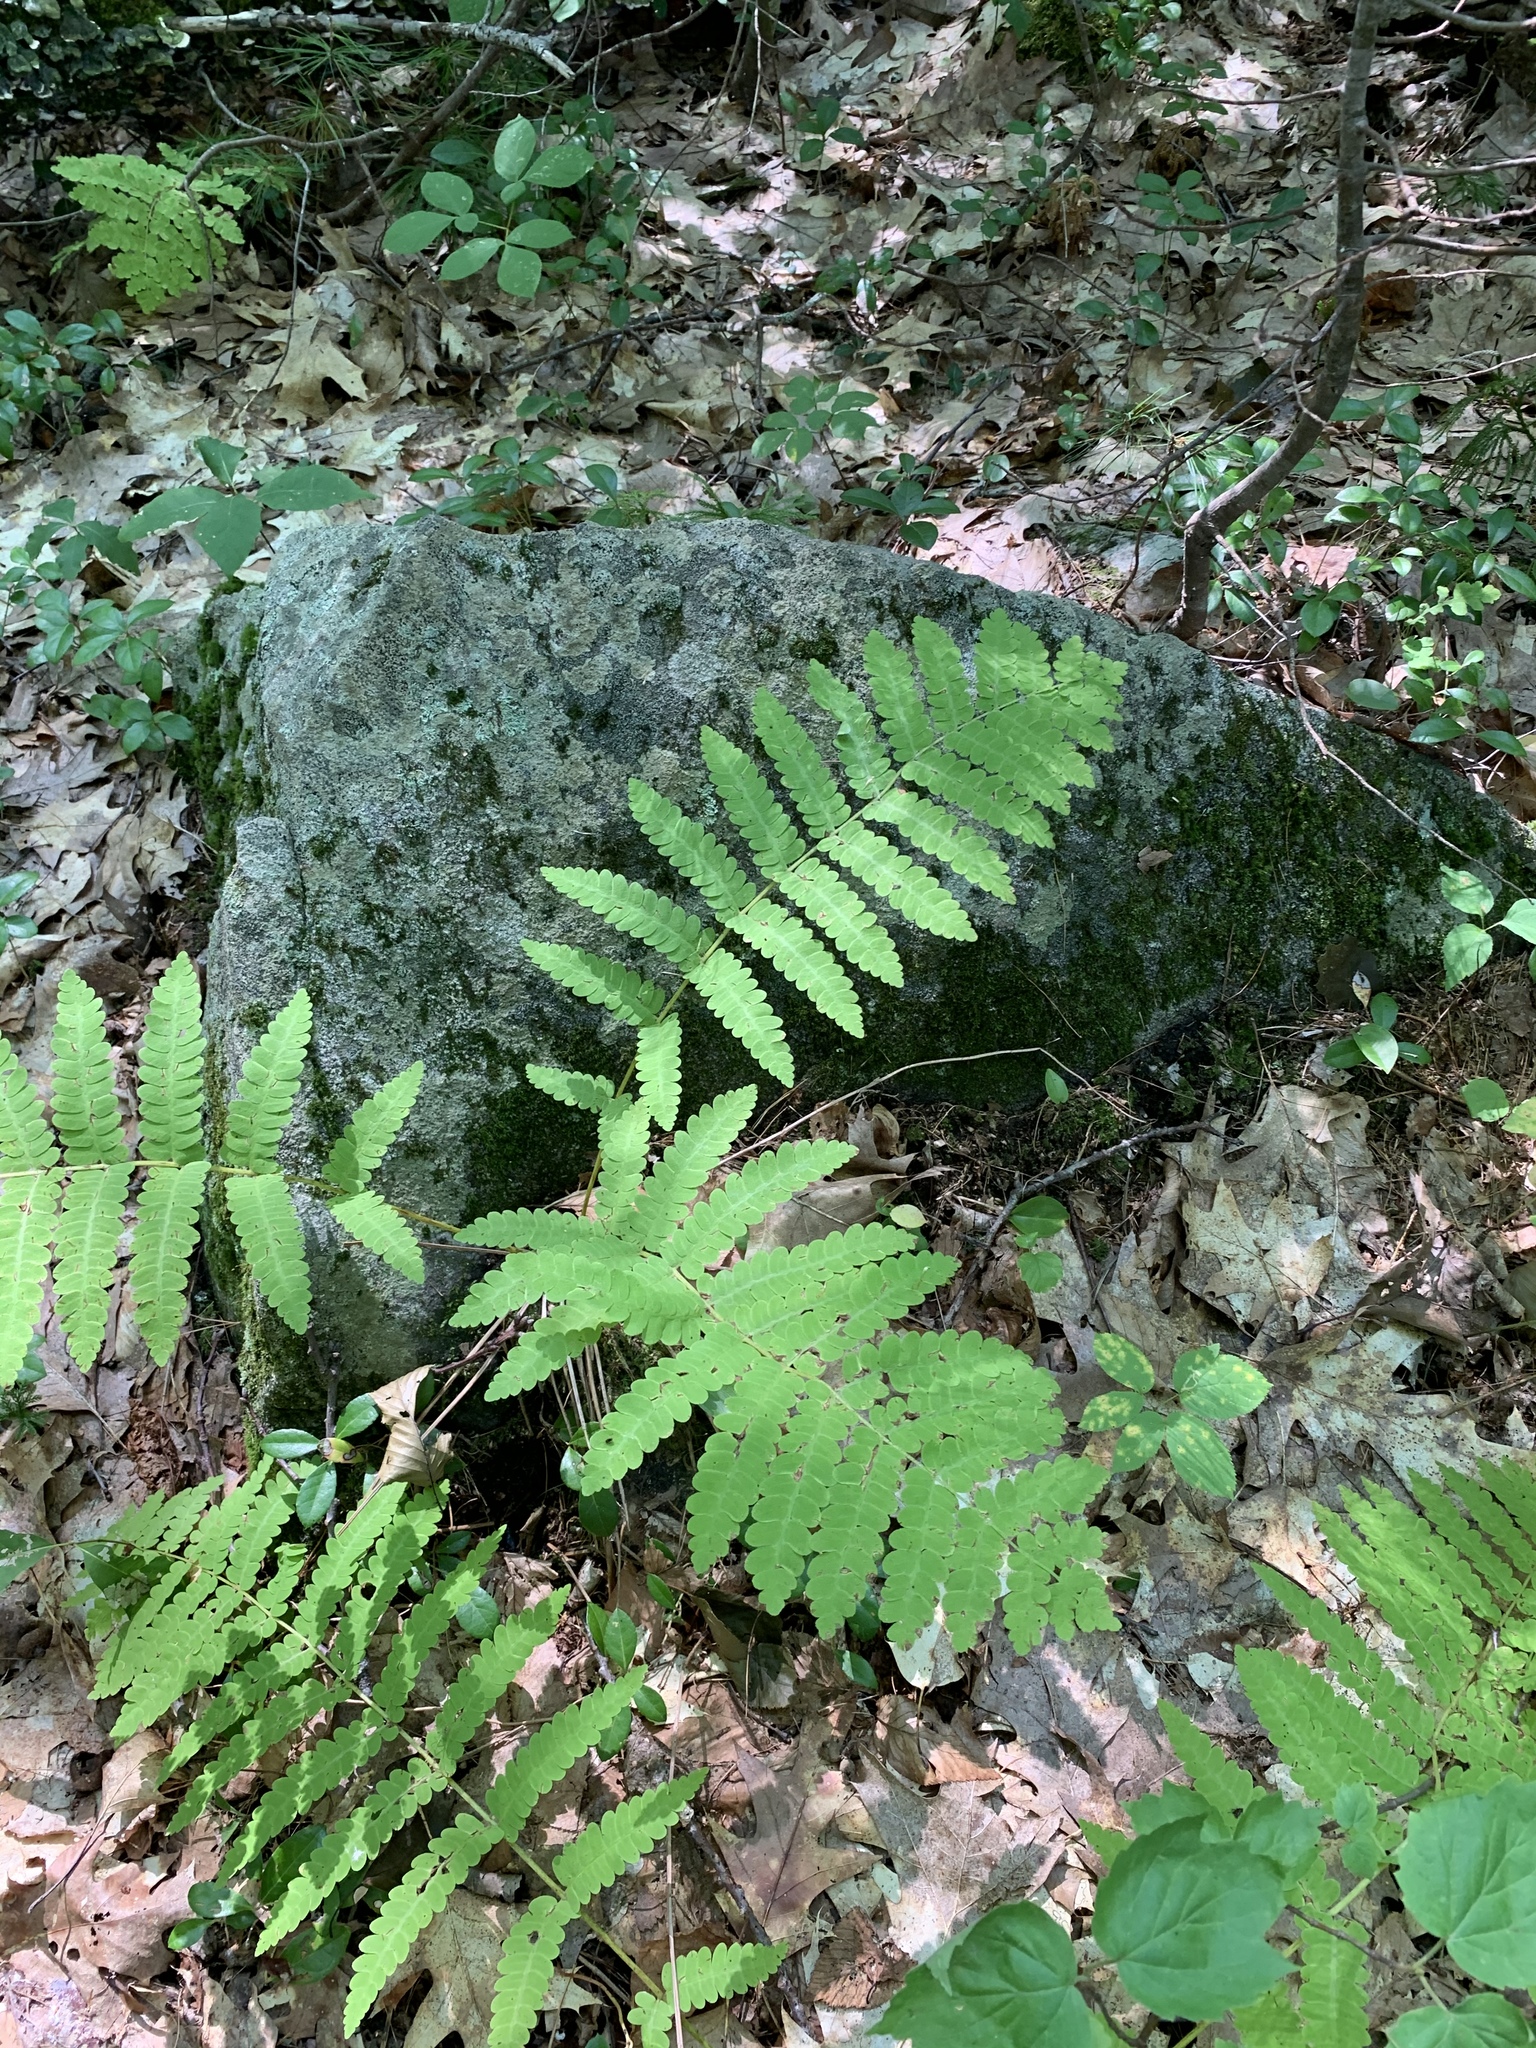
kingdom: Plantae
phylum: Tracheophyta
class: Polypodiopsida
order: Osmundales
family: Osmundaceae
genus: Claytosmunda
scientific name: Claytosmunda claytoniana
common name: Clayton's fern
